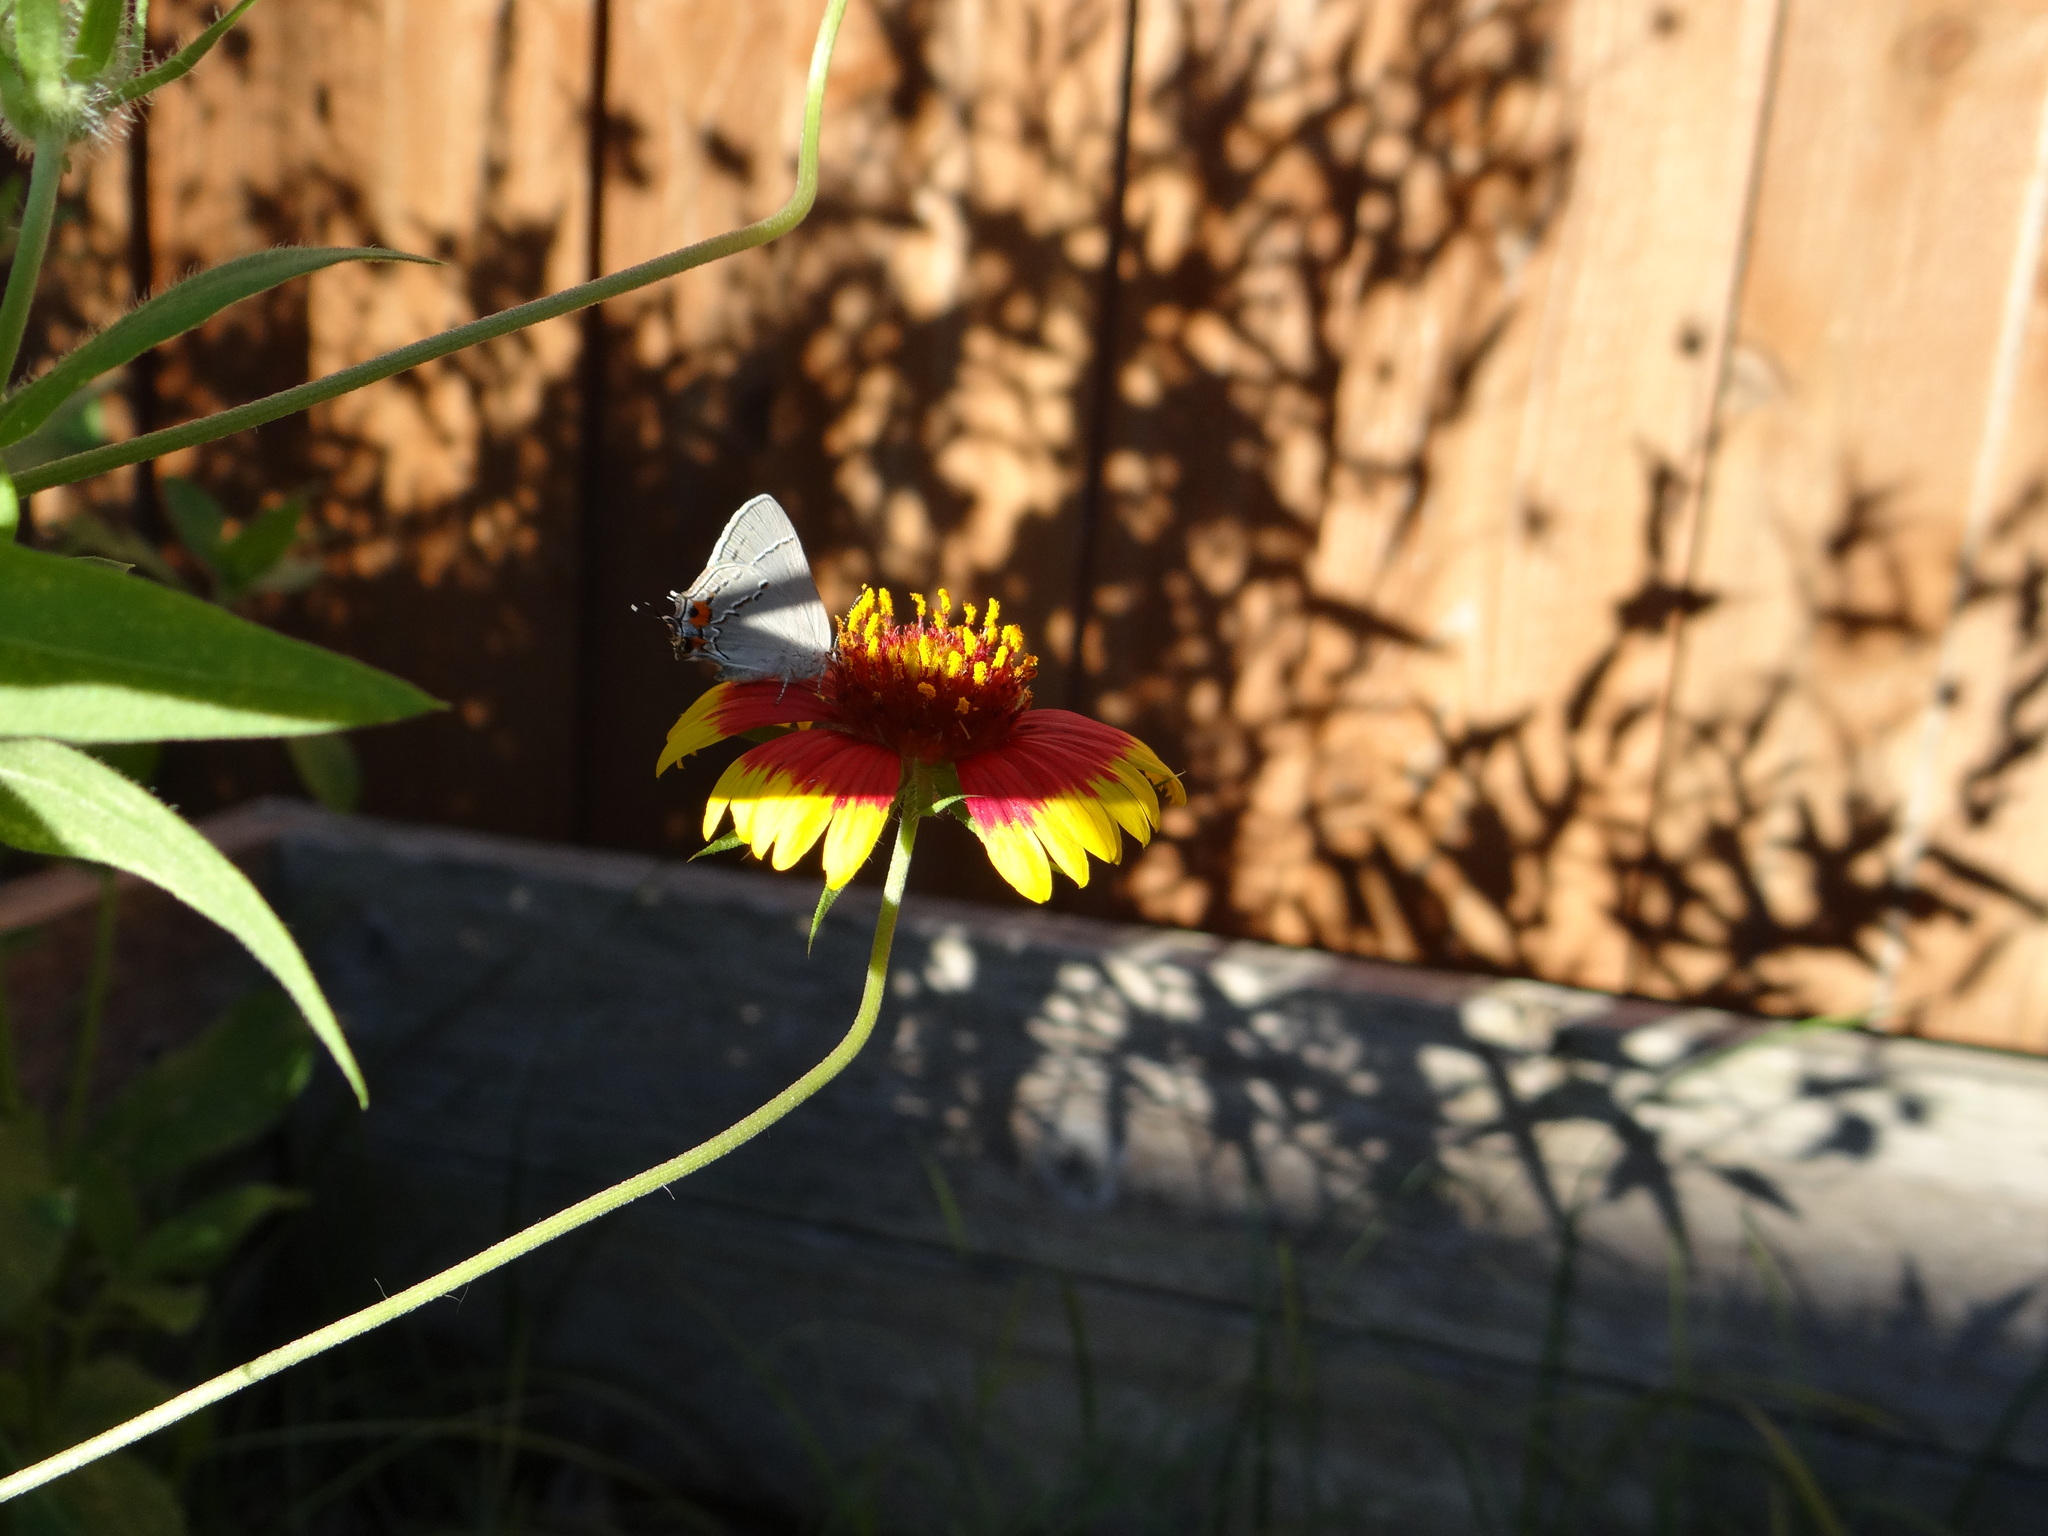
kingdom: Animalia
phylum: Arthropoda
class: Insecta
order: Lepidoptera
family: Lycaenidae
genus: Strymon
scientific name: Strymon melinus
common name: Gray hairstreak
